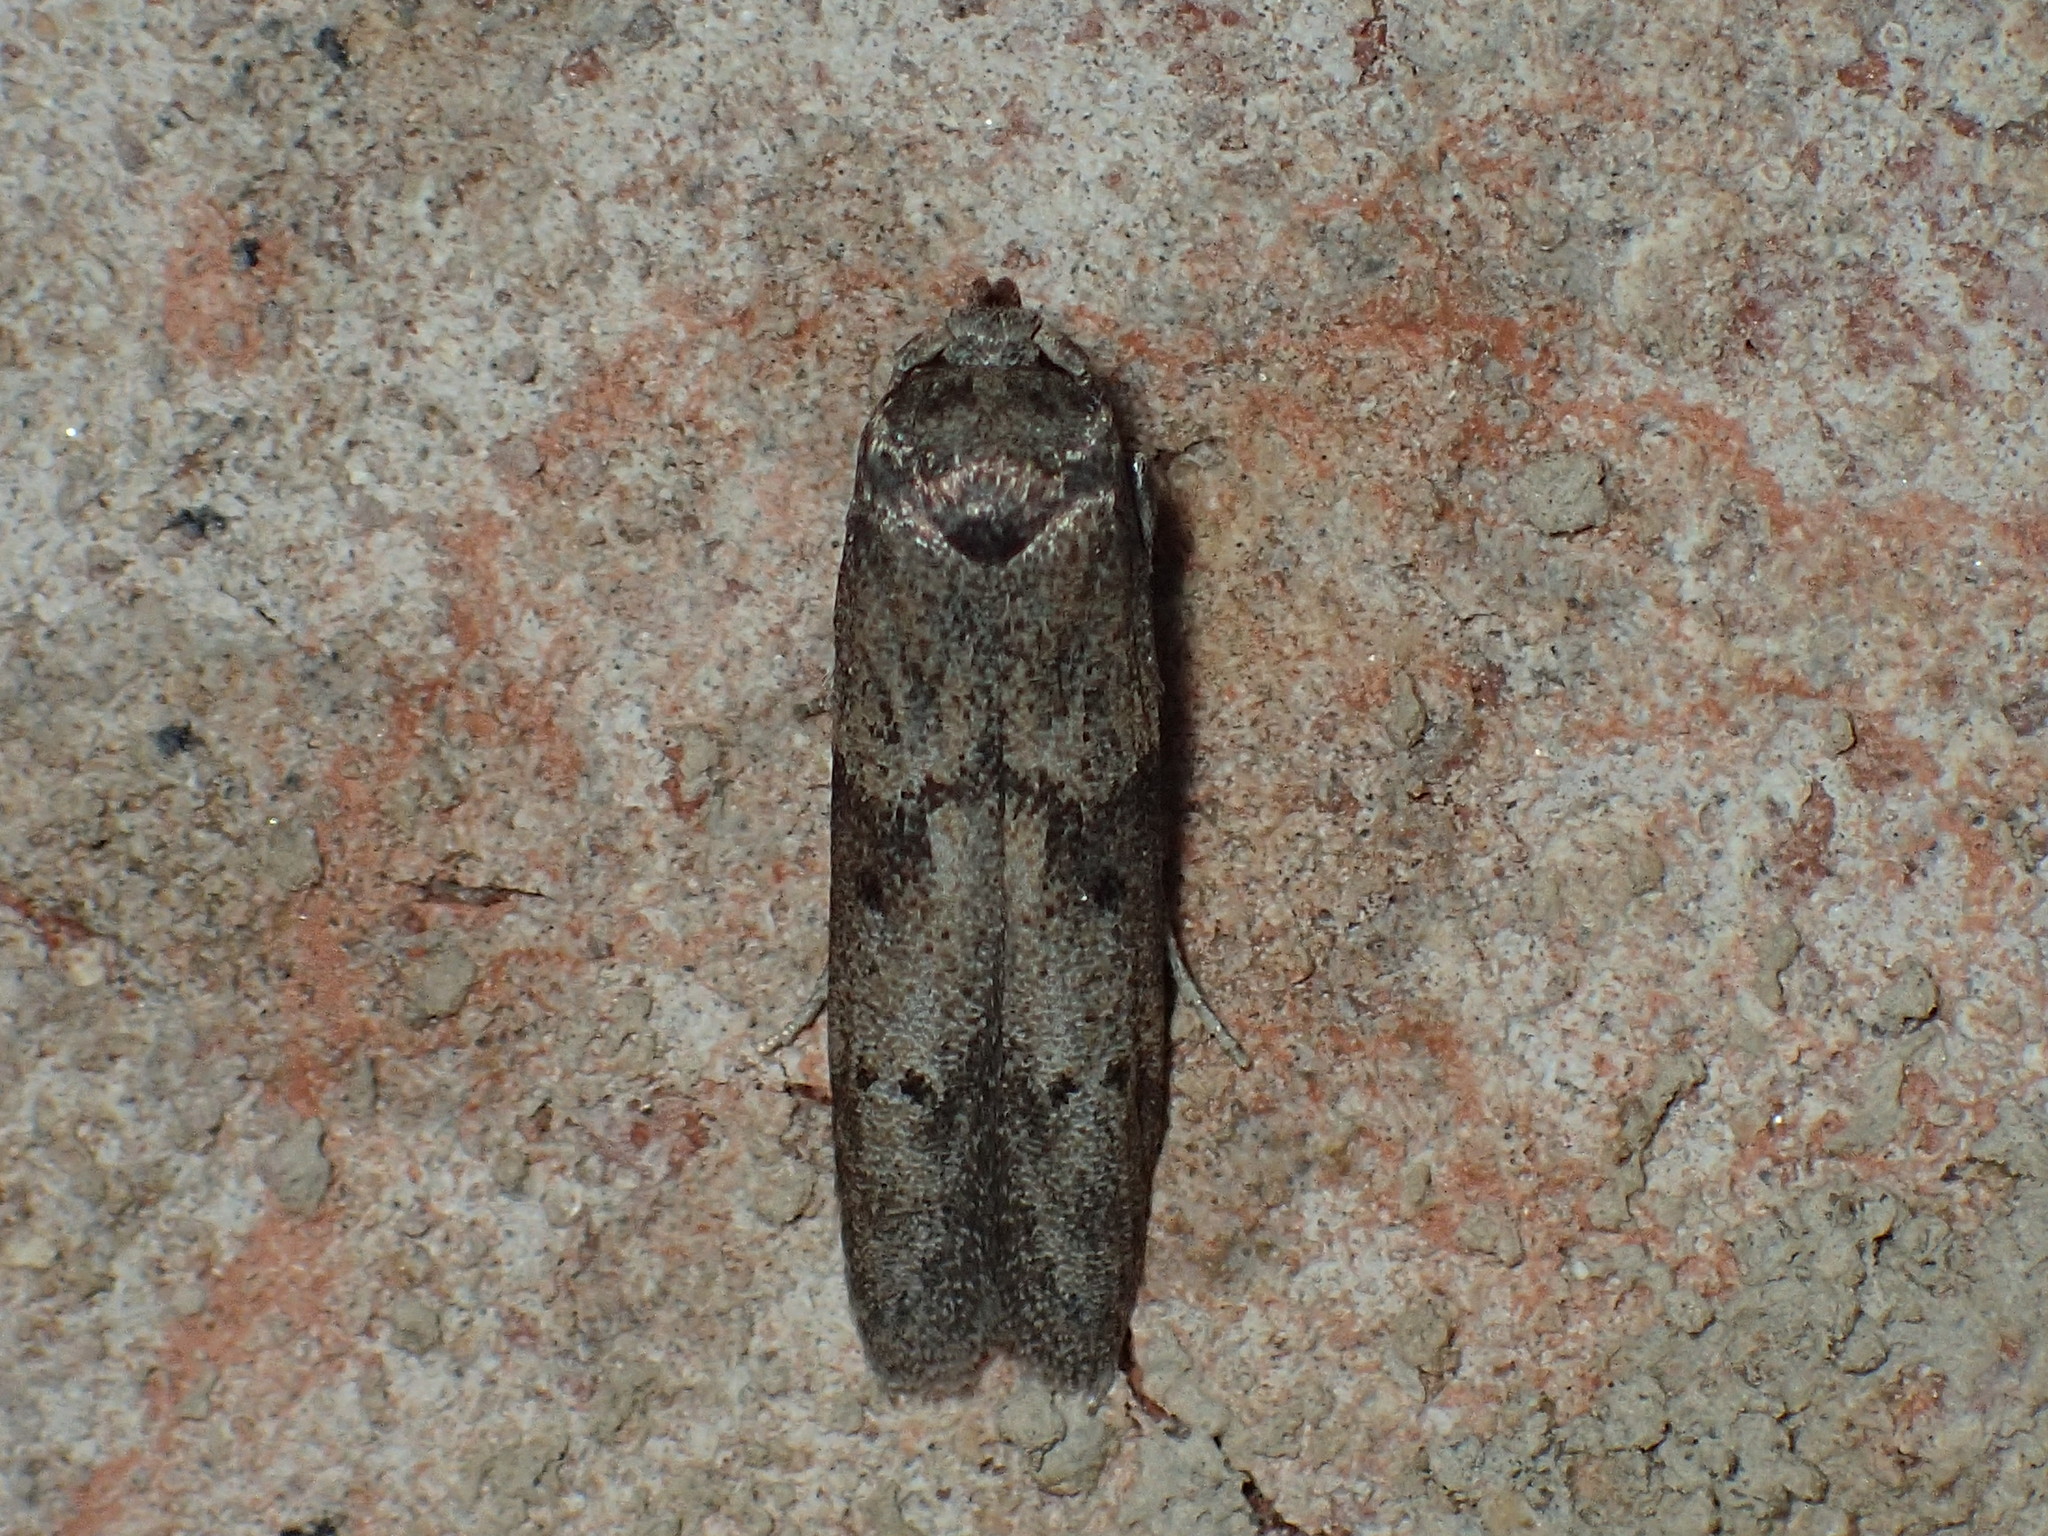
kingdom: Animalia
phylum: Arthropoda
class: Insecta
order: Lepidoptera
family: Blastobasidae
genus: Blastobasis
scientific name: Blastobasis glandulella
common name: Acorn moth
